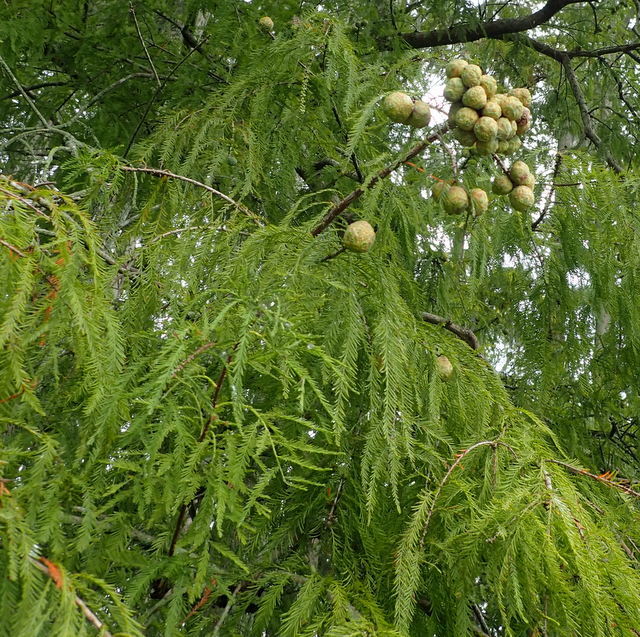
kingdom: Plantae
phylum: Tracheophyta
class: Pinopsida
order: Pinales
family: Cupressaceae
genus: Taxodium
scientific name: Taxodium distichum
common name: Bald cypress
